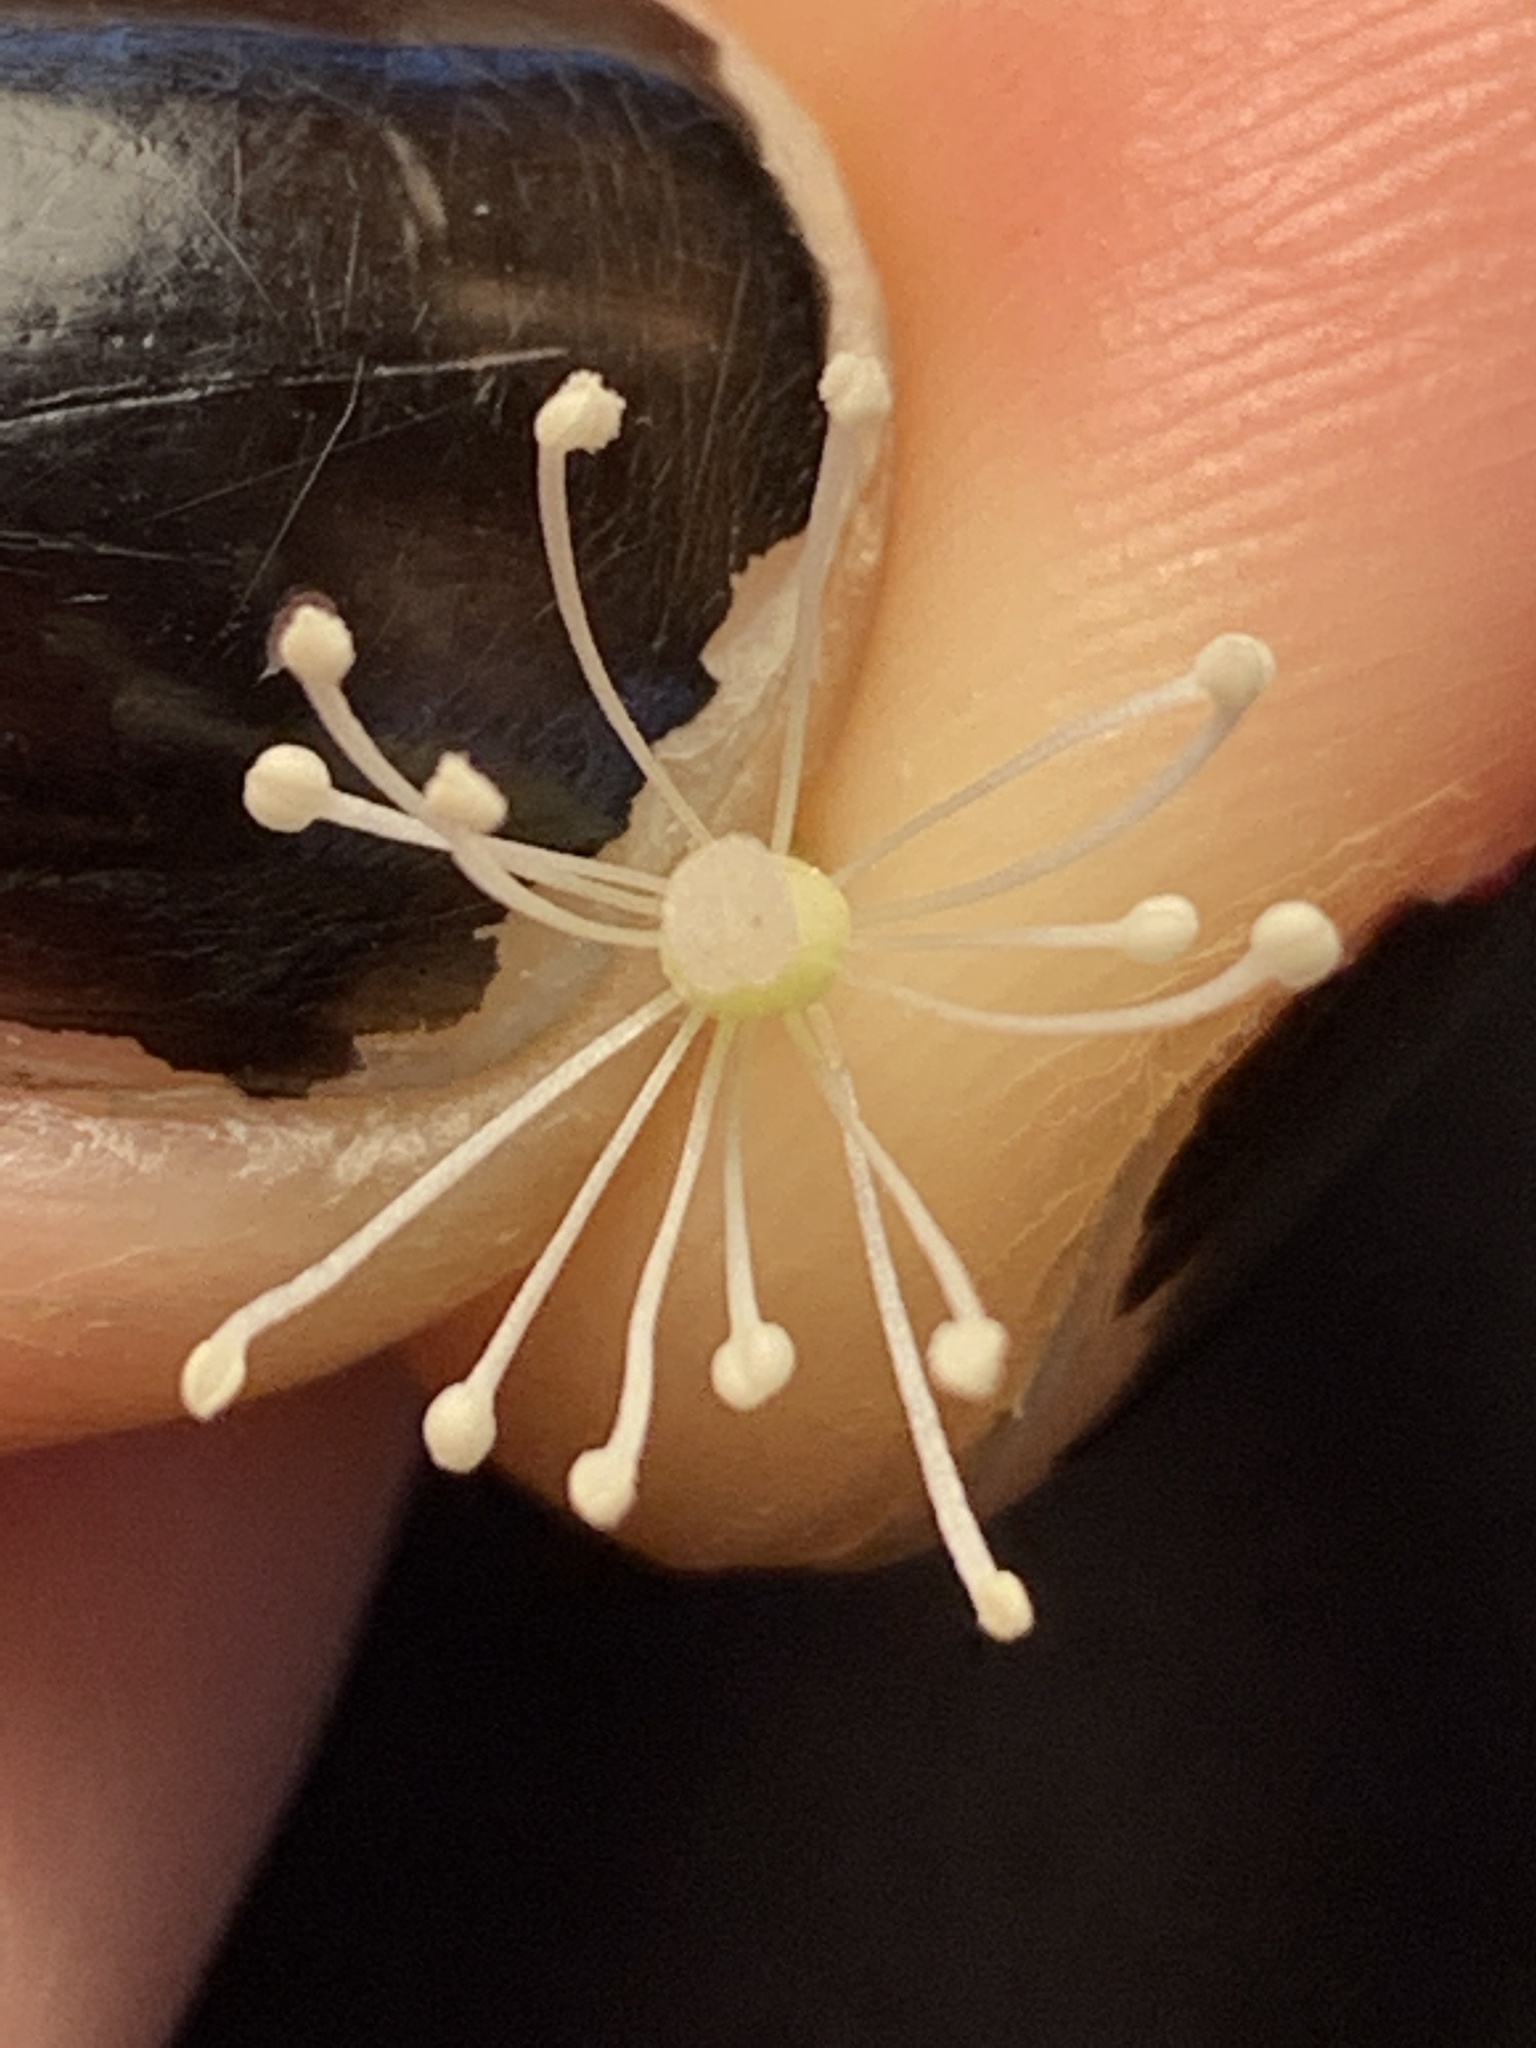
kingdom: Plantae
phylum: Tracheophyta
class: Magnoliopsida
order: Ranunculales
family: Ranunculaceae
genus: Actaea
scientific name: Actaea rubra
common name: Red baneberry
